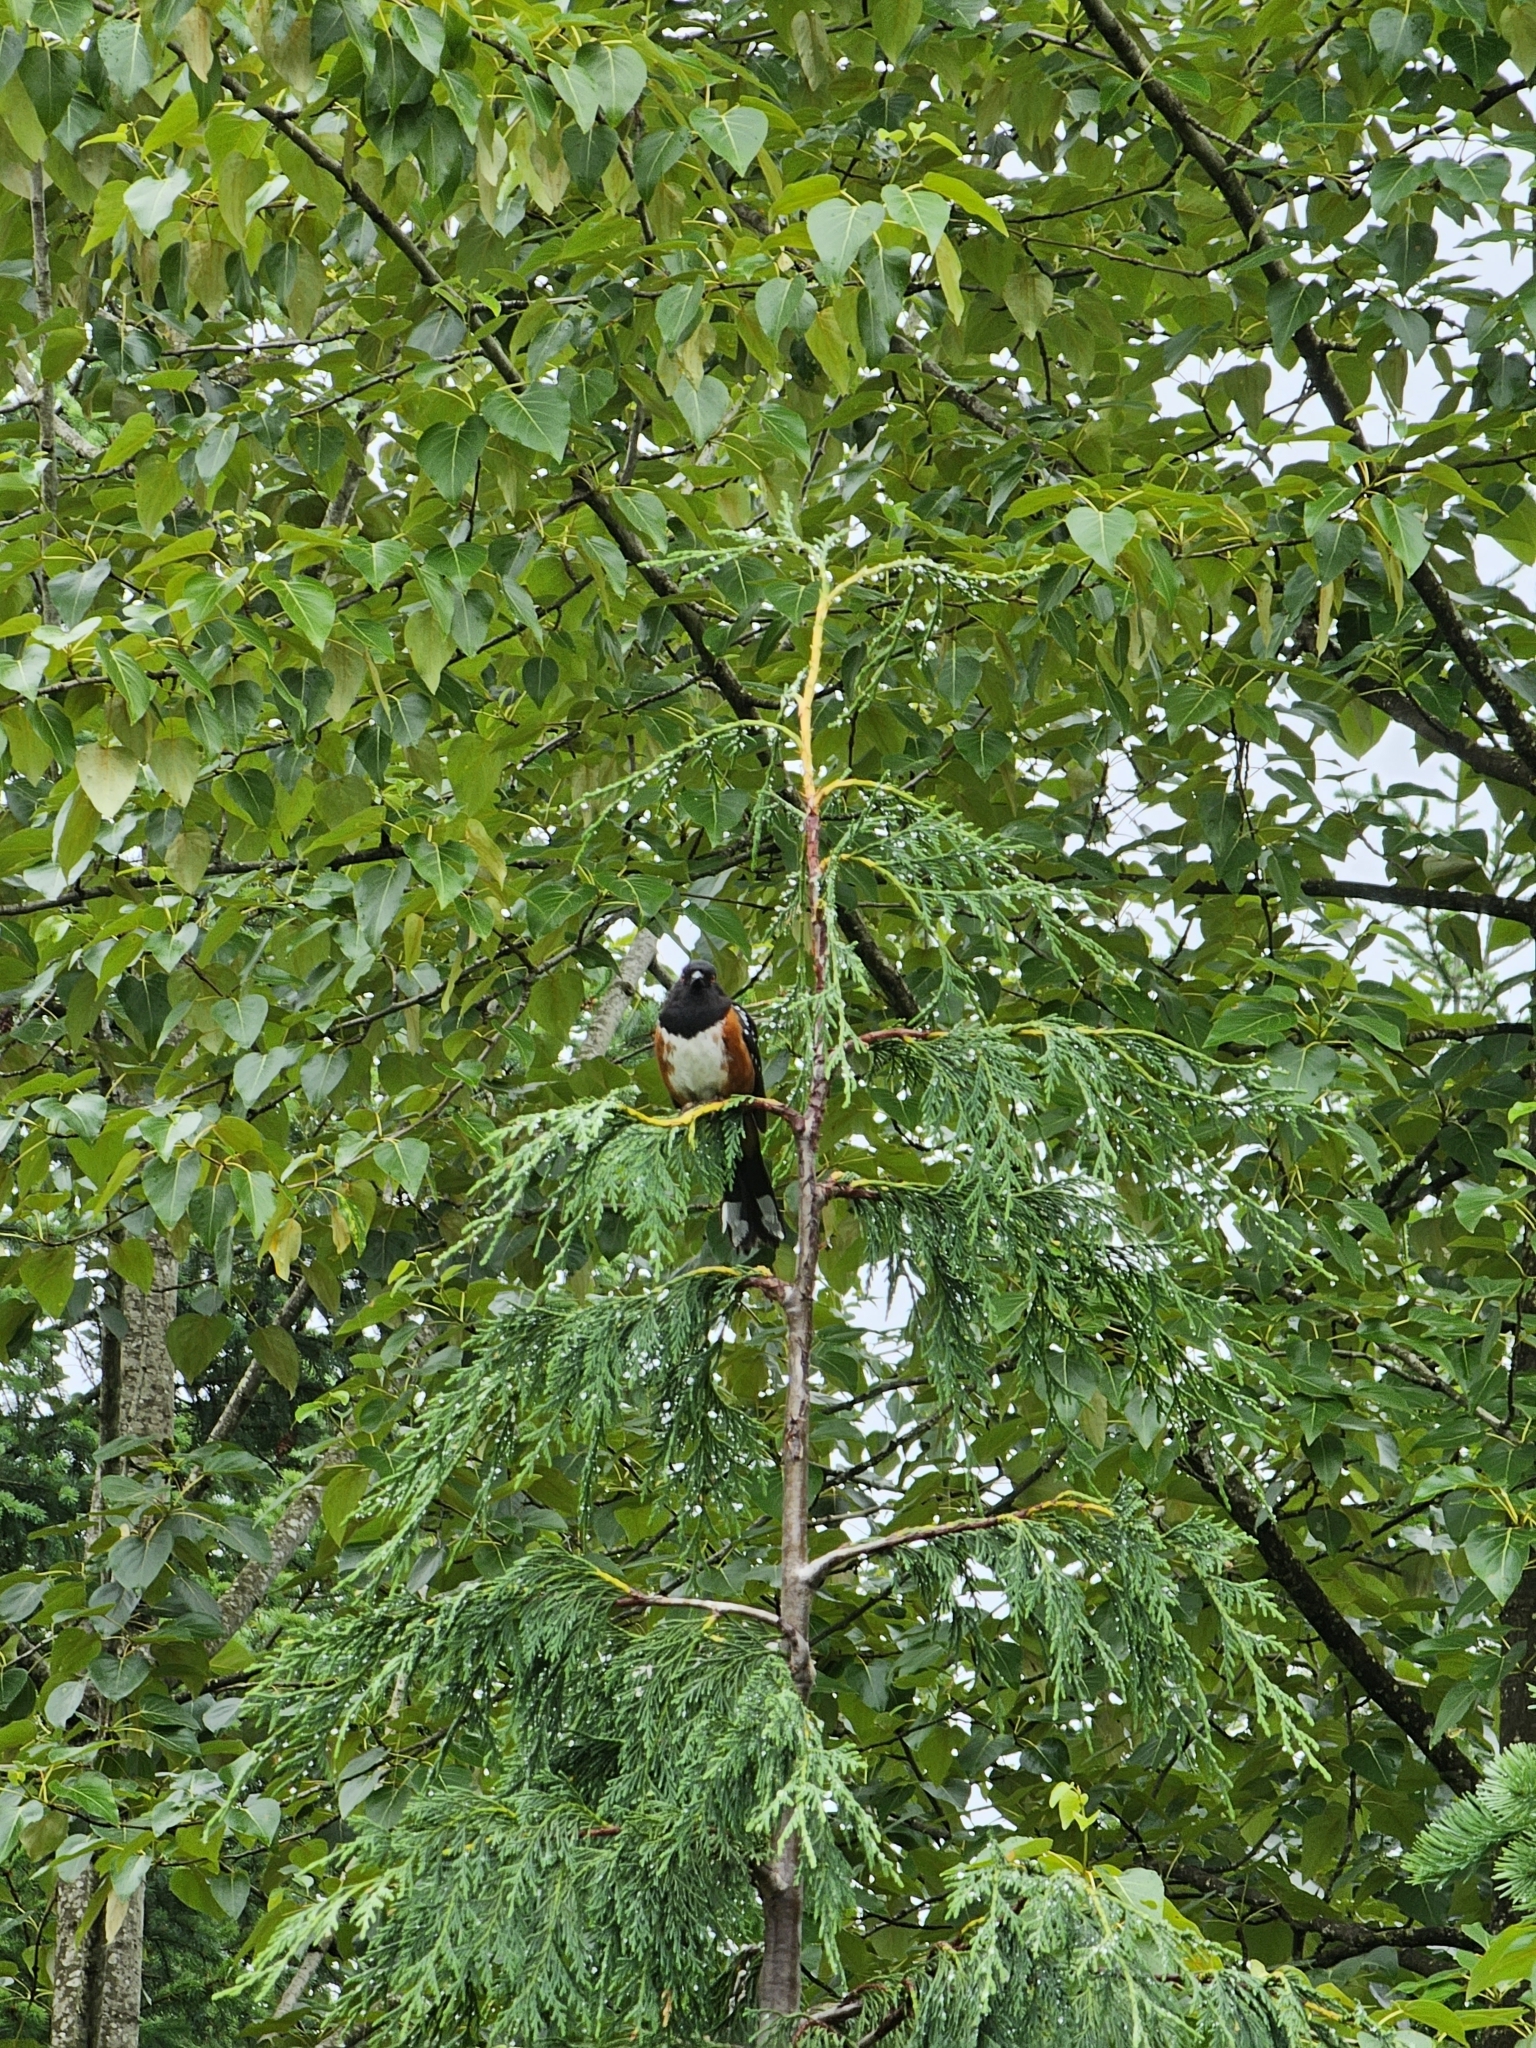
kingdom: Animalia
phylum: Chordata
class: Aves
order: Passeriformes
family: Passerellidae
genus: Pipilo
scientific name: Pipilo maculatus
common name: Spotted towhee
